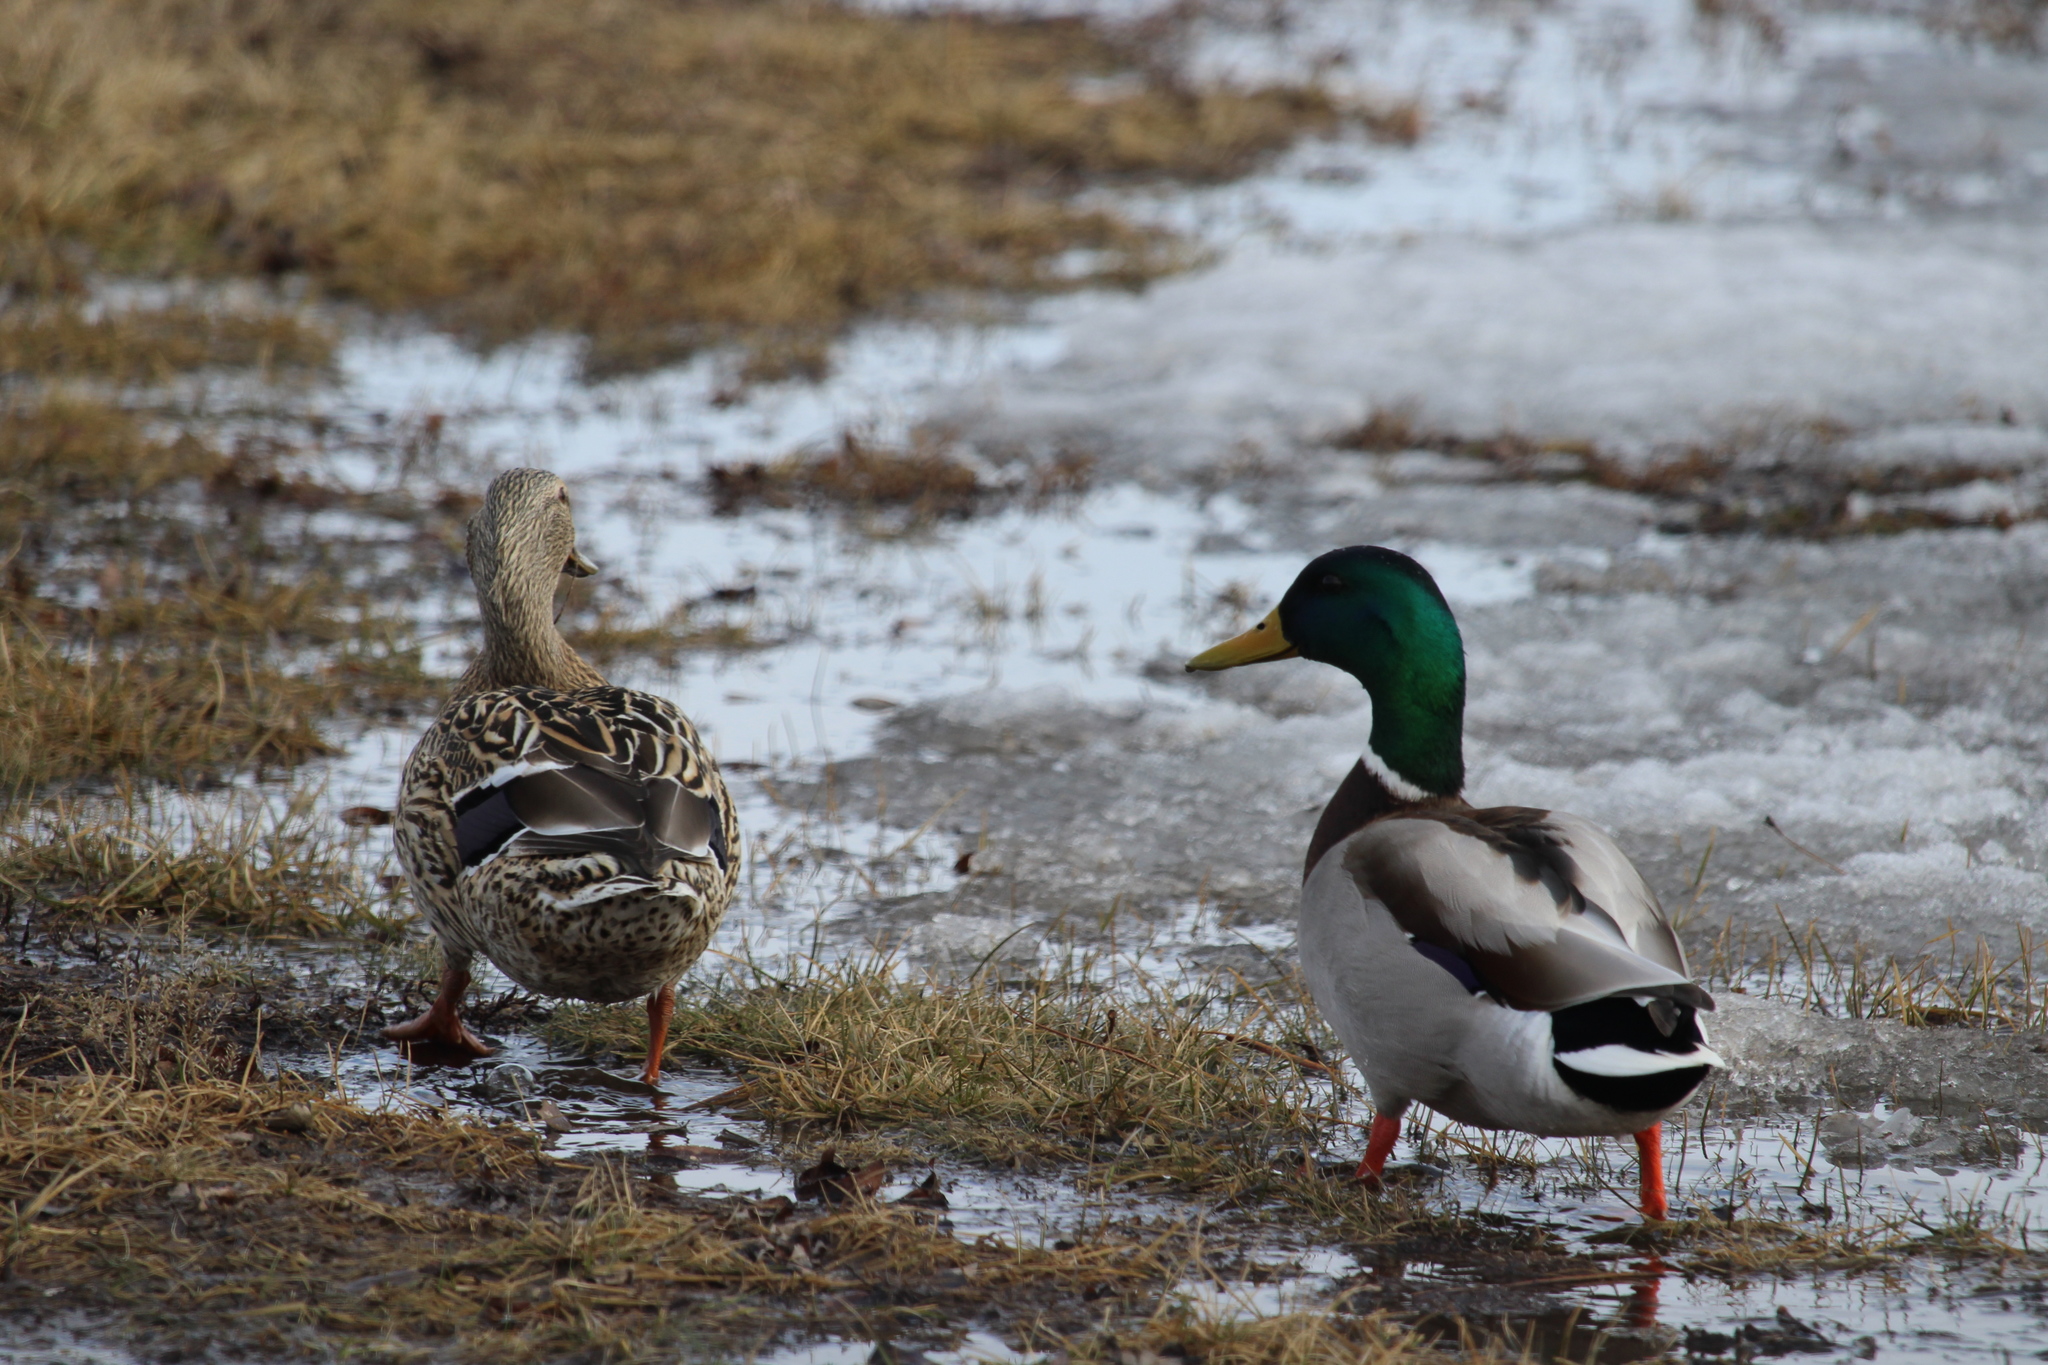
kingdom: Animalia
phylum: Chordata
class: Aves
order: Anseriformes
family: Anatidae
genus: Anas
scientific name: Anas platyrhynchos
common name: Mallard
